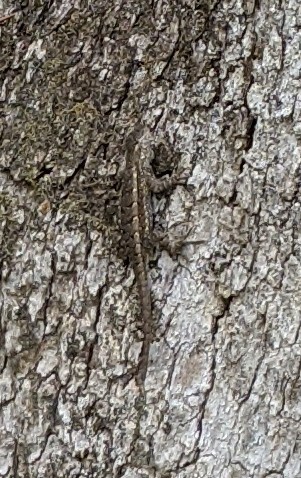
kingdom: Animalia
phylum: Chordata
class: Squamata
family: Phrynosomatidae
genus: Sceloporus
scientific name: Sceloporus consobrinus
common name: Southern prairie lizard
